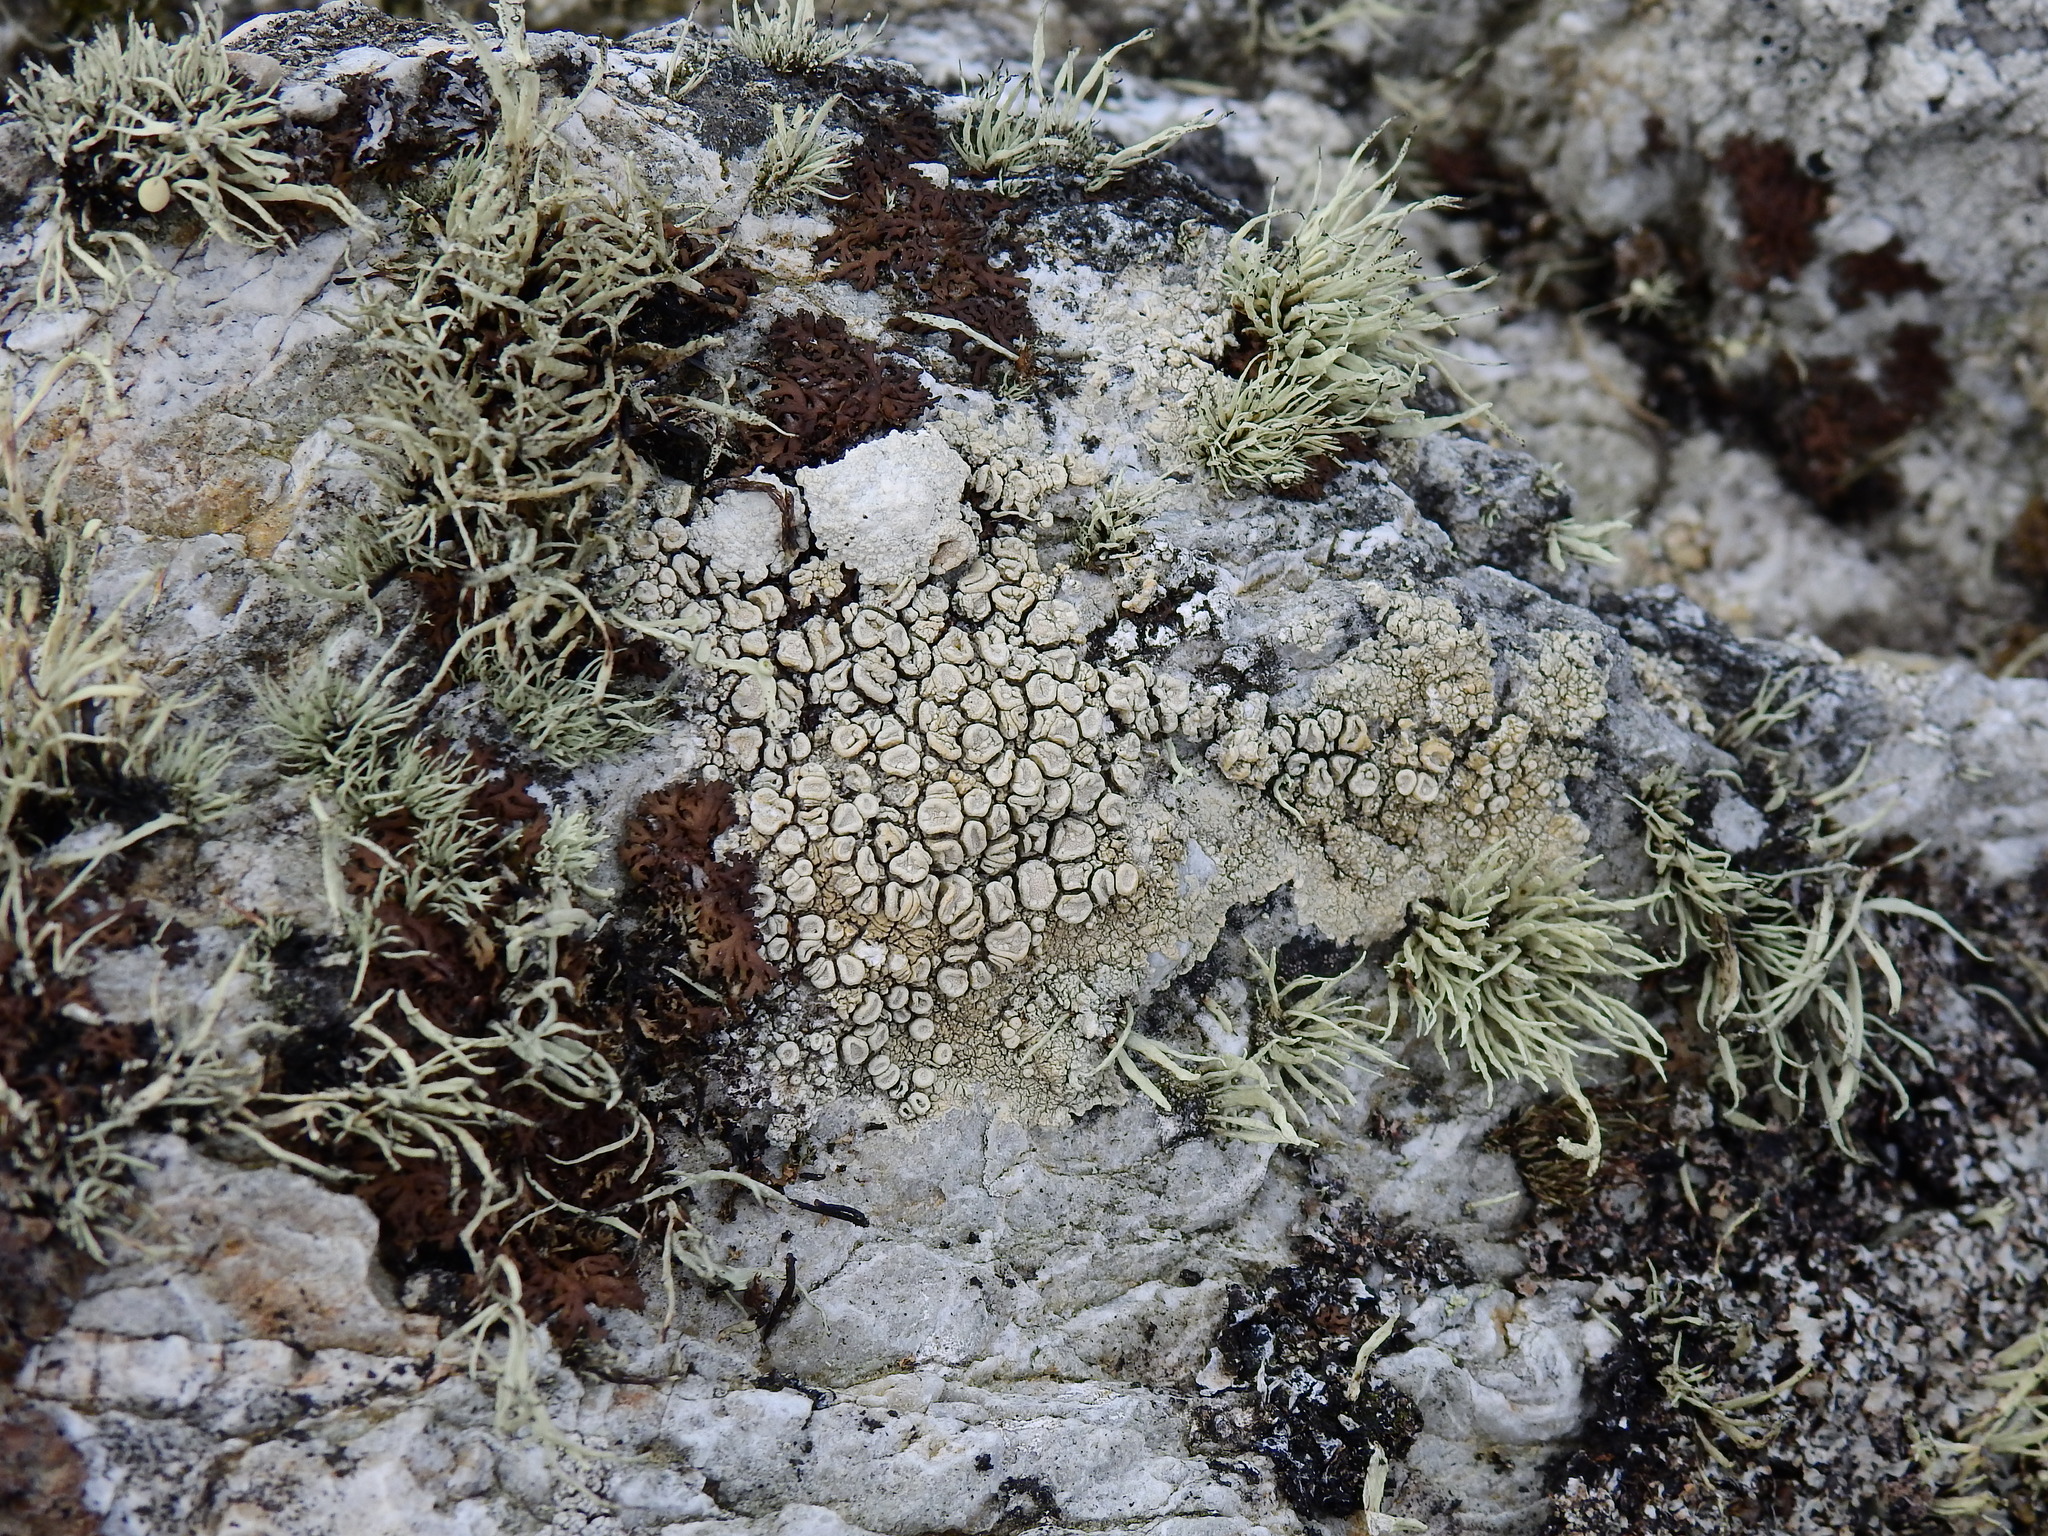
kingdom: Fungi
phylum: Ascomycota
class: Lecanoromycetes
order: Pertusariales
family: Ochrolechiaceae
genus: Ochrolechia
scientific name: Ochrolechia parella
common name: Crab's eye lichen
